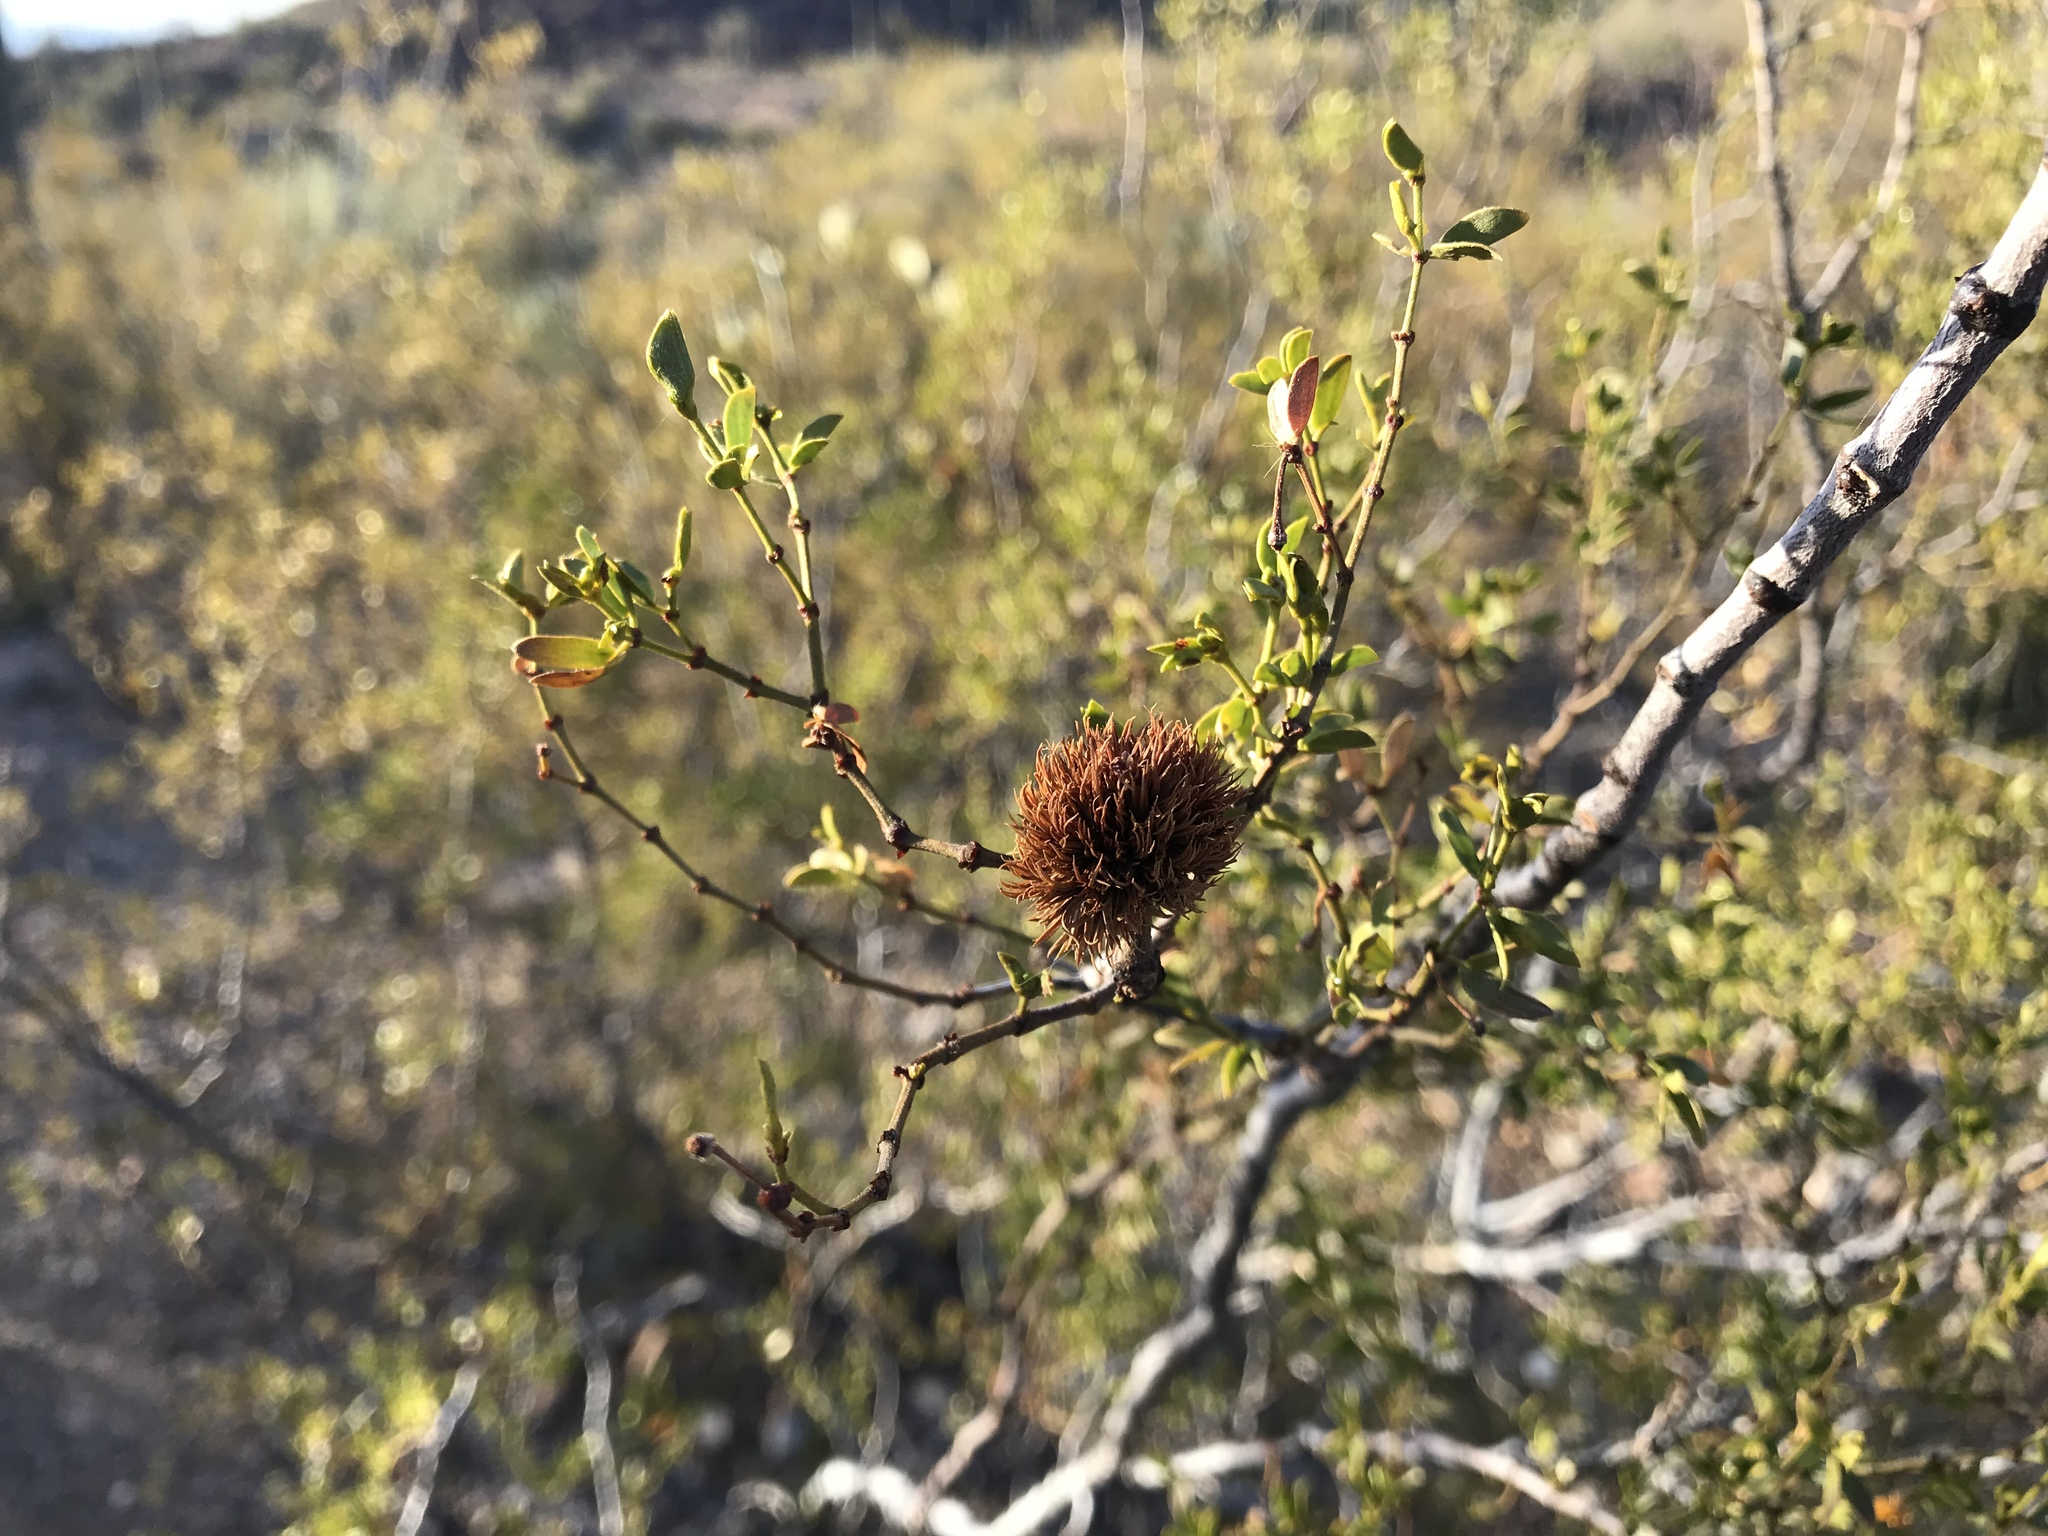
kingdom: Animalia
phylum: Arthropoda
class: Insecta
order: Diptera
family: Cecidomyiidae
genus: Asphondylia
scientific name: Asphondylia auripila
